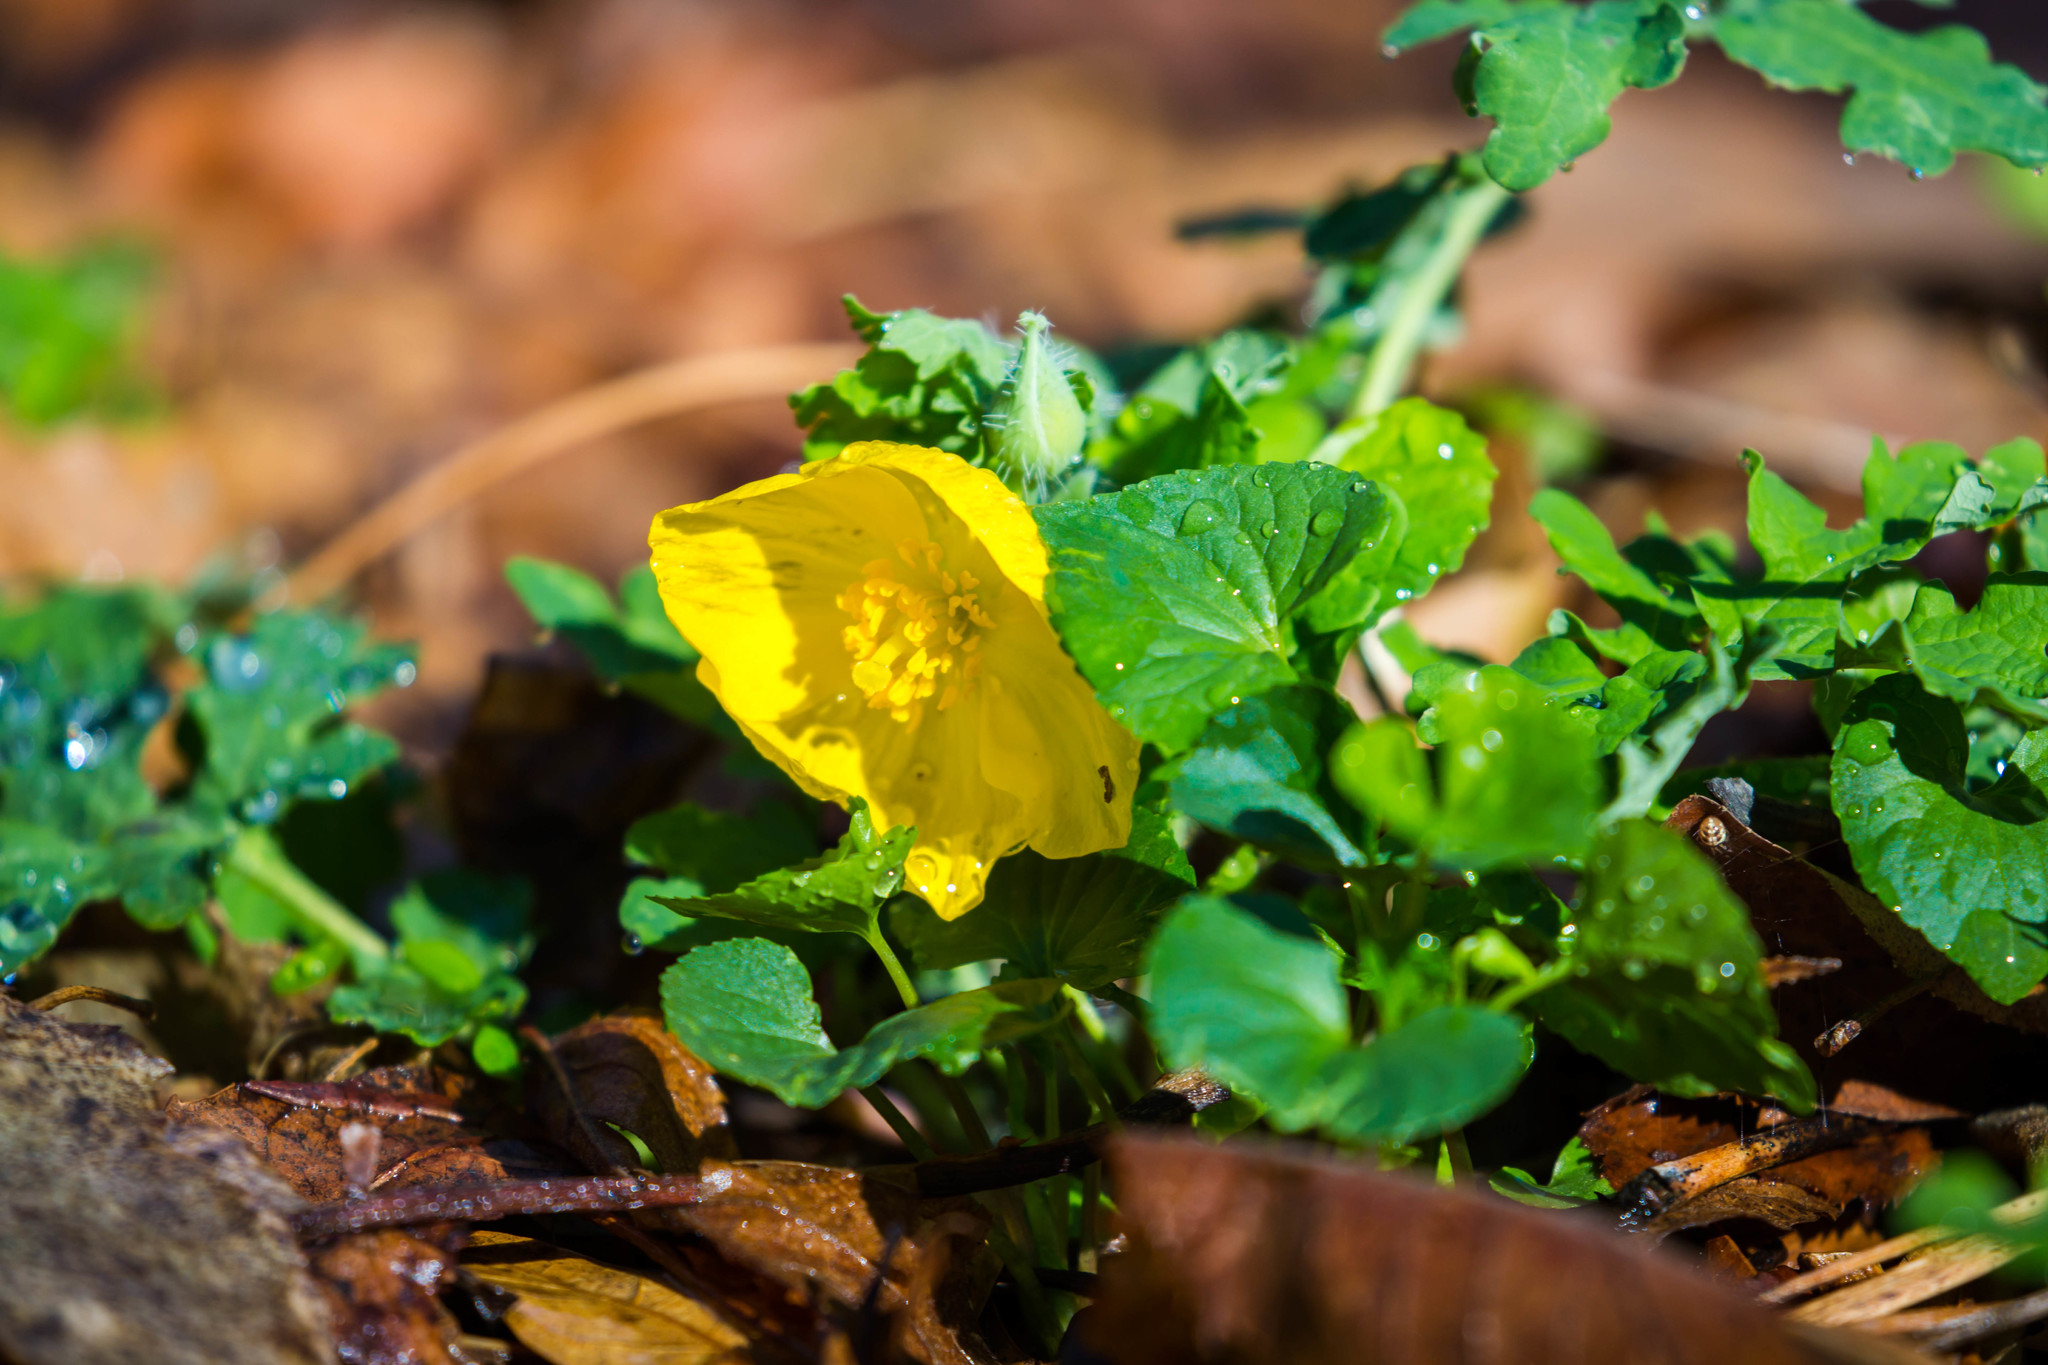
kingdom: Plantae
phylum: Tracheophyta
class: Magnoliopsida
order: Ranunculales
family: Papaveraceae
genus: Stylophorum
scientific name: Stylophorum diphyllum
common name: Celandine poppy
